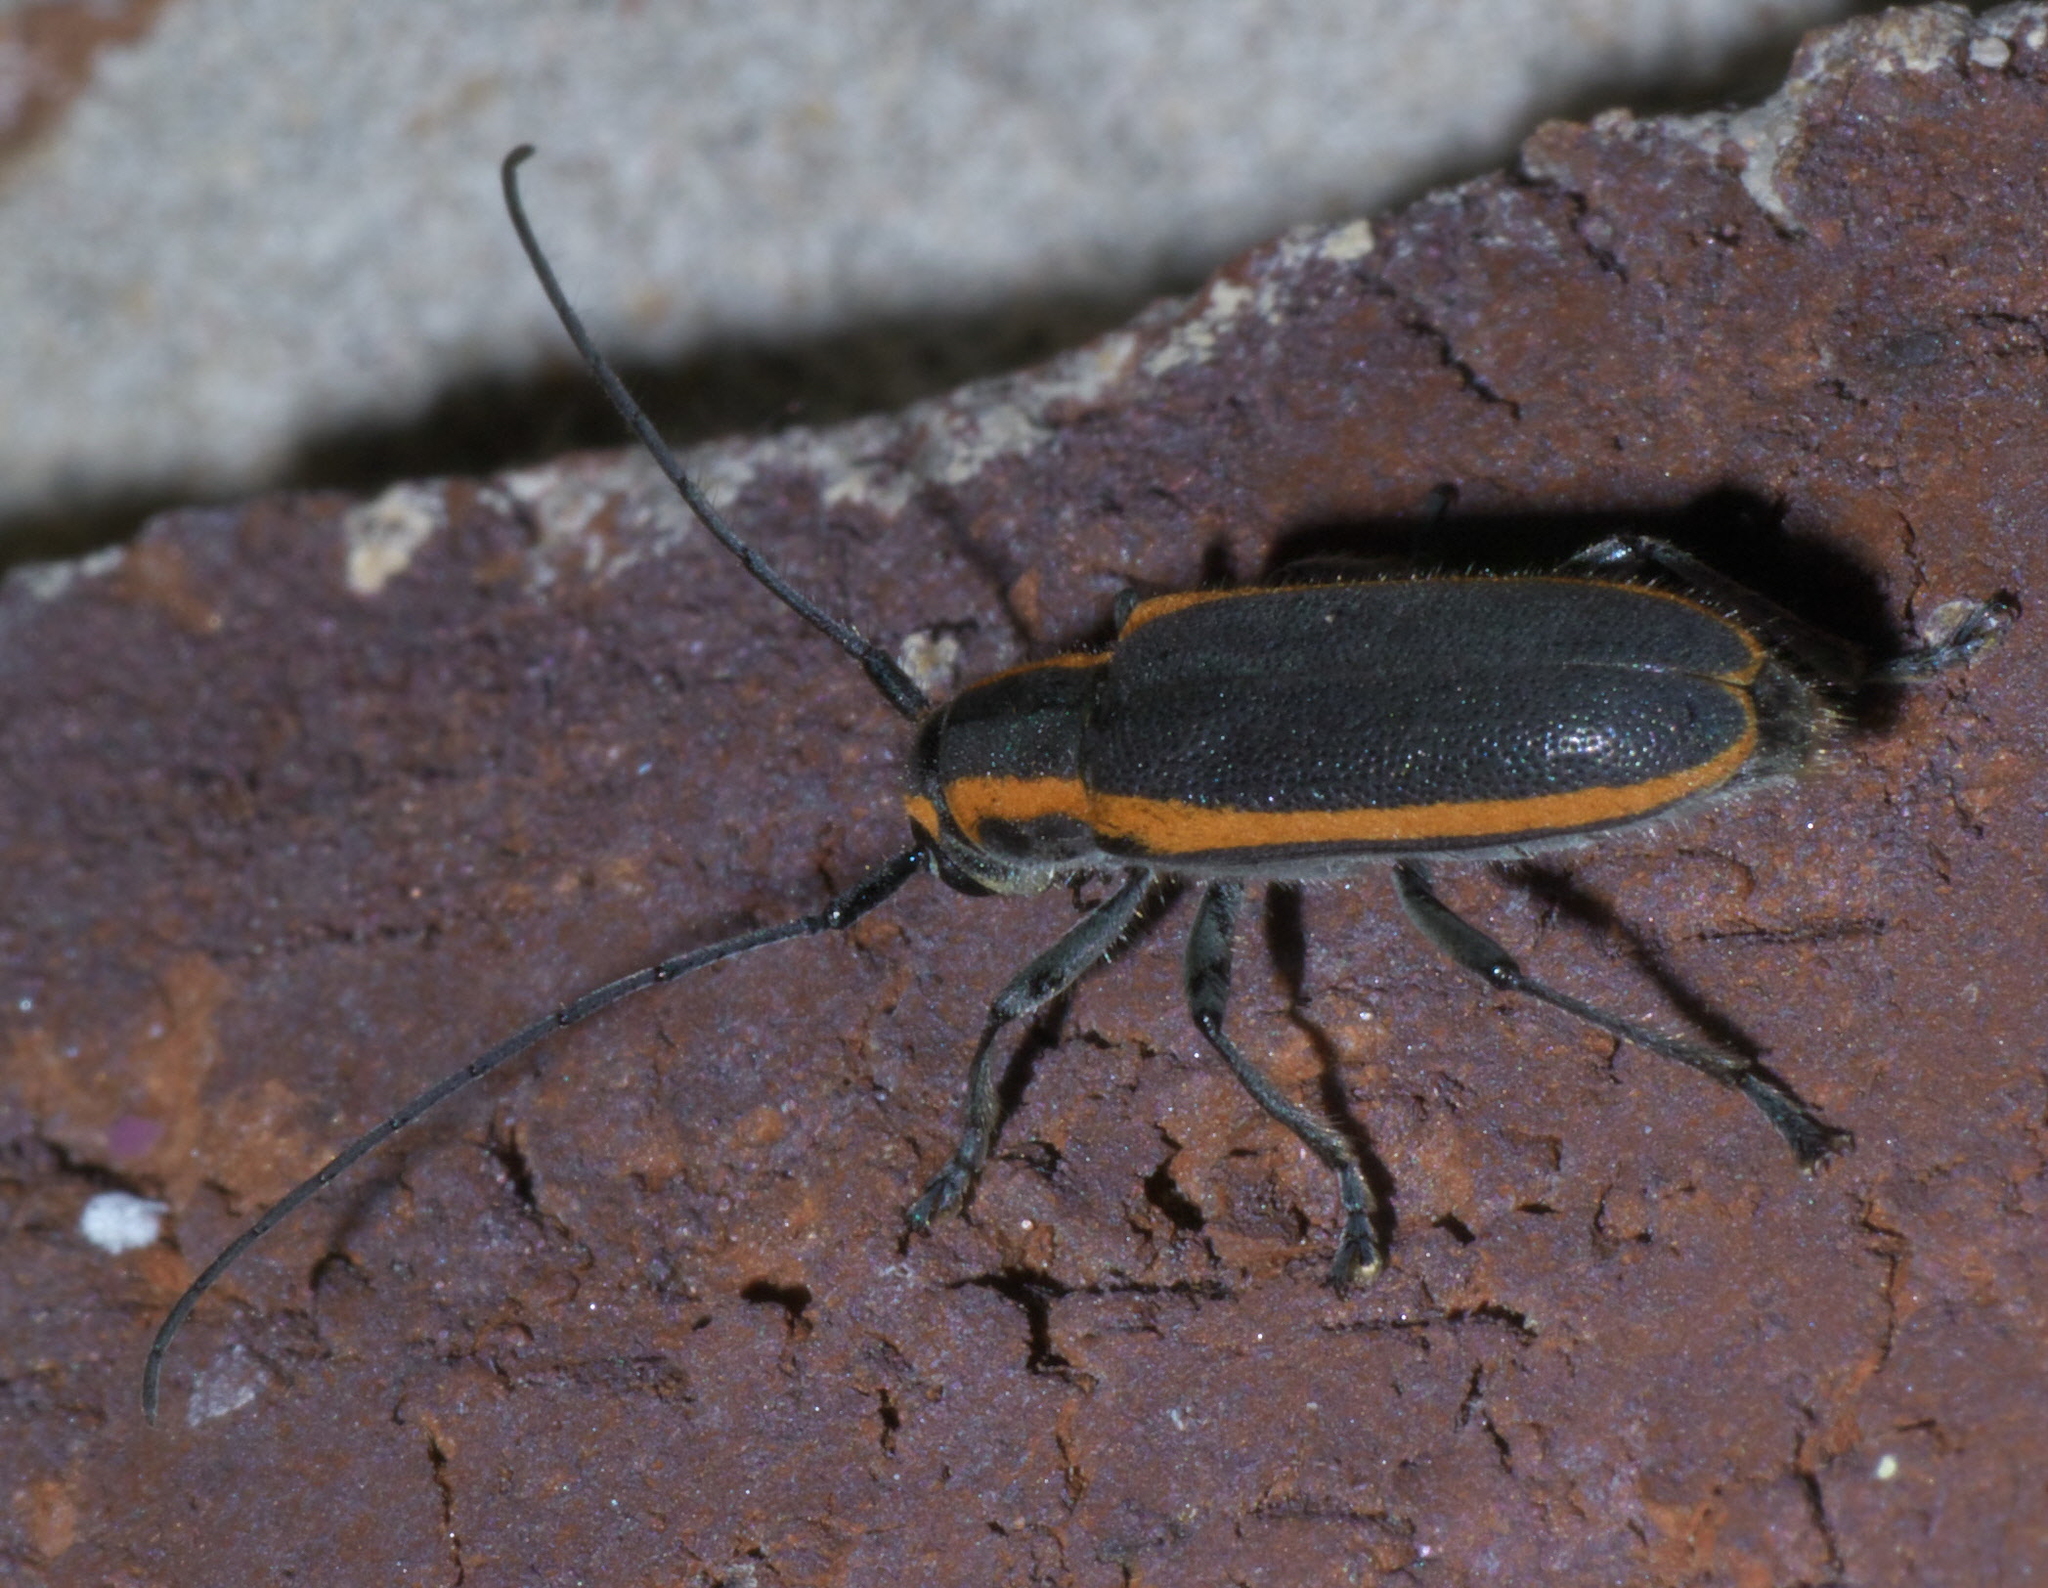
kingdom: Animalia
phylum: Arthropoda
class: Insecta
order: Coleoptera
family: Cerambycidae
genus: Saperda
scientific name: Saperda lateralis
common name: Red-edged saperda
